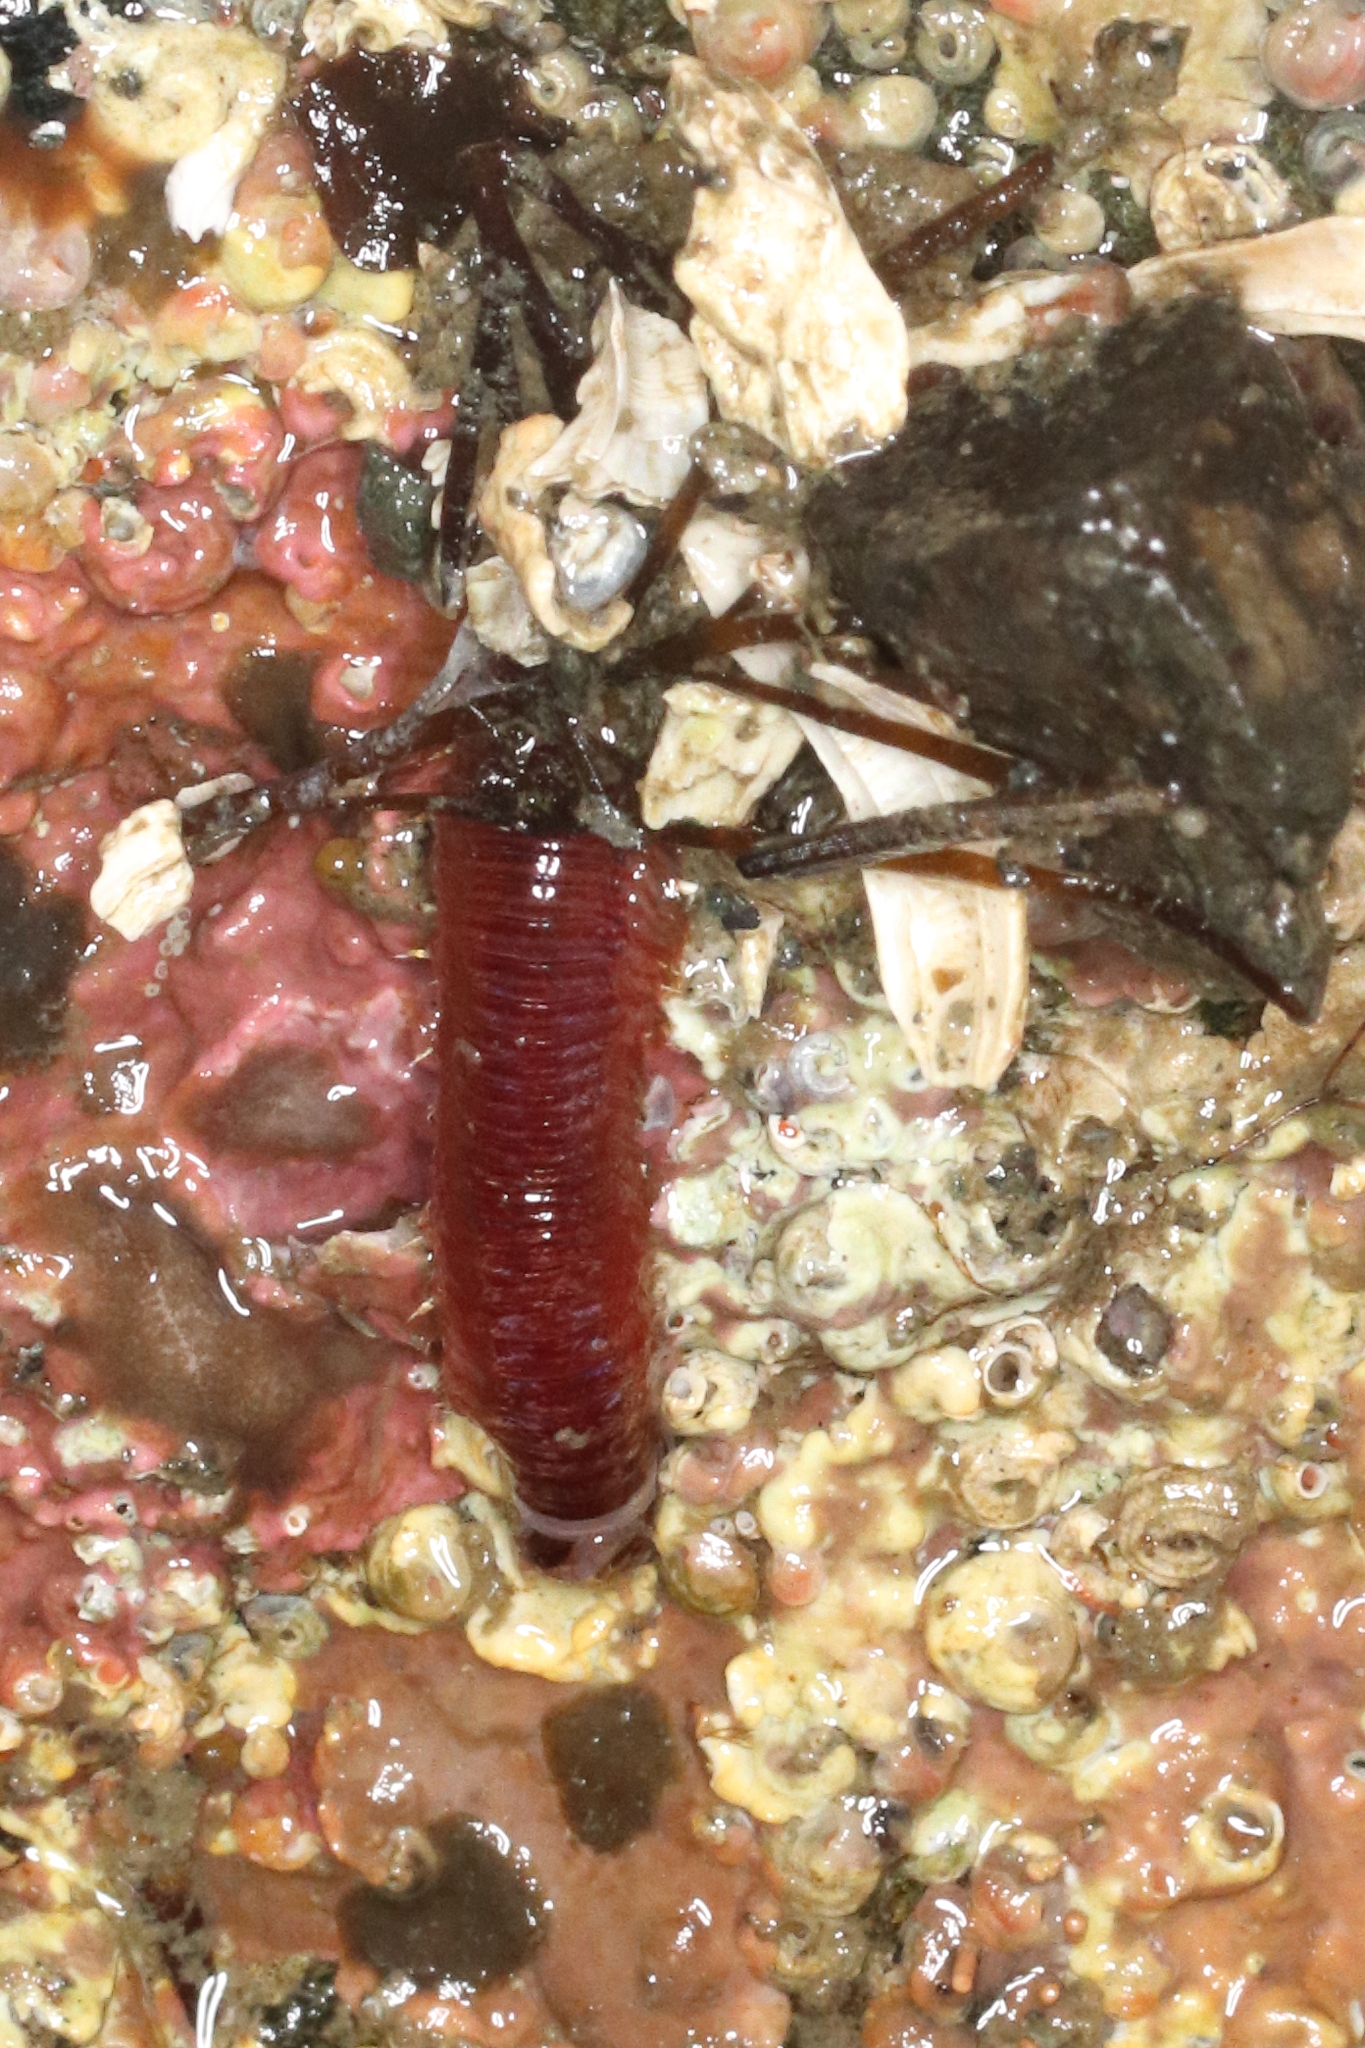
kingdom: Animalia
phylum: Annelida
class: Polychaeta
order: Eunicida
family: Eunicidae
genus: Leodice
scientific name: Leodice valens
